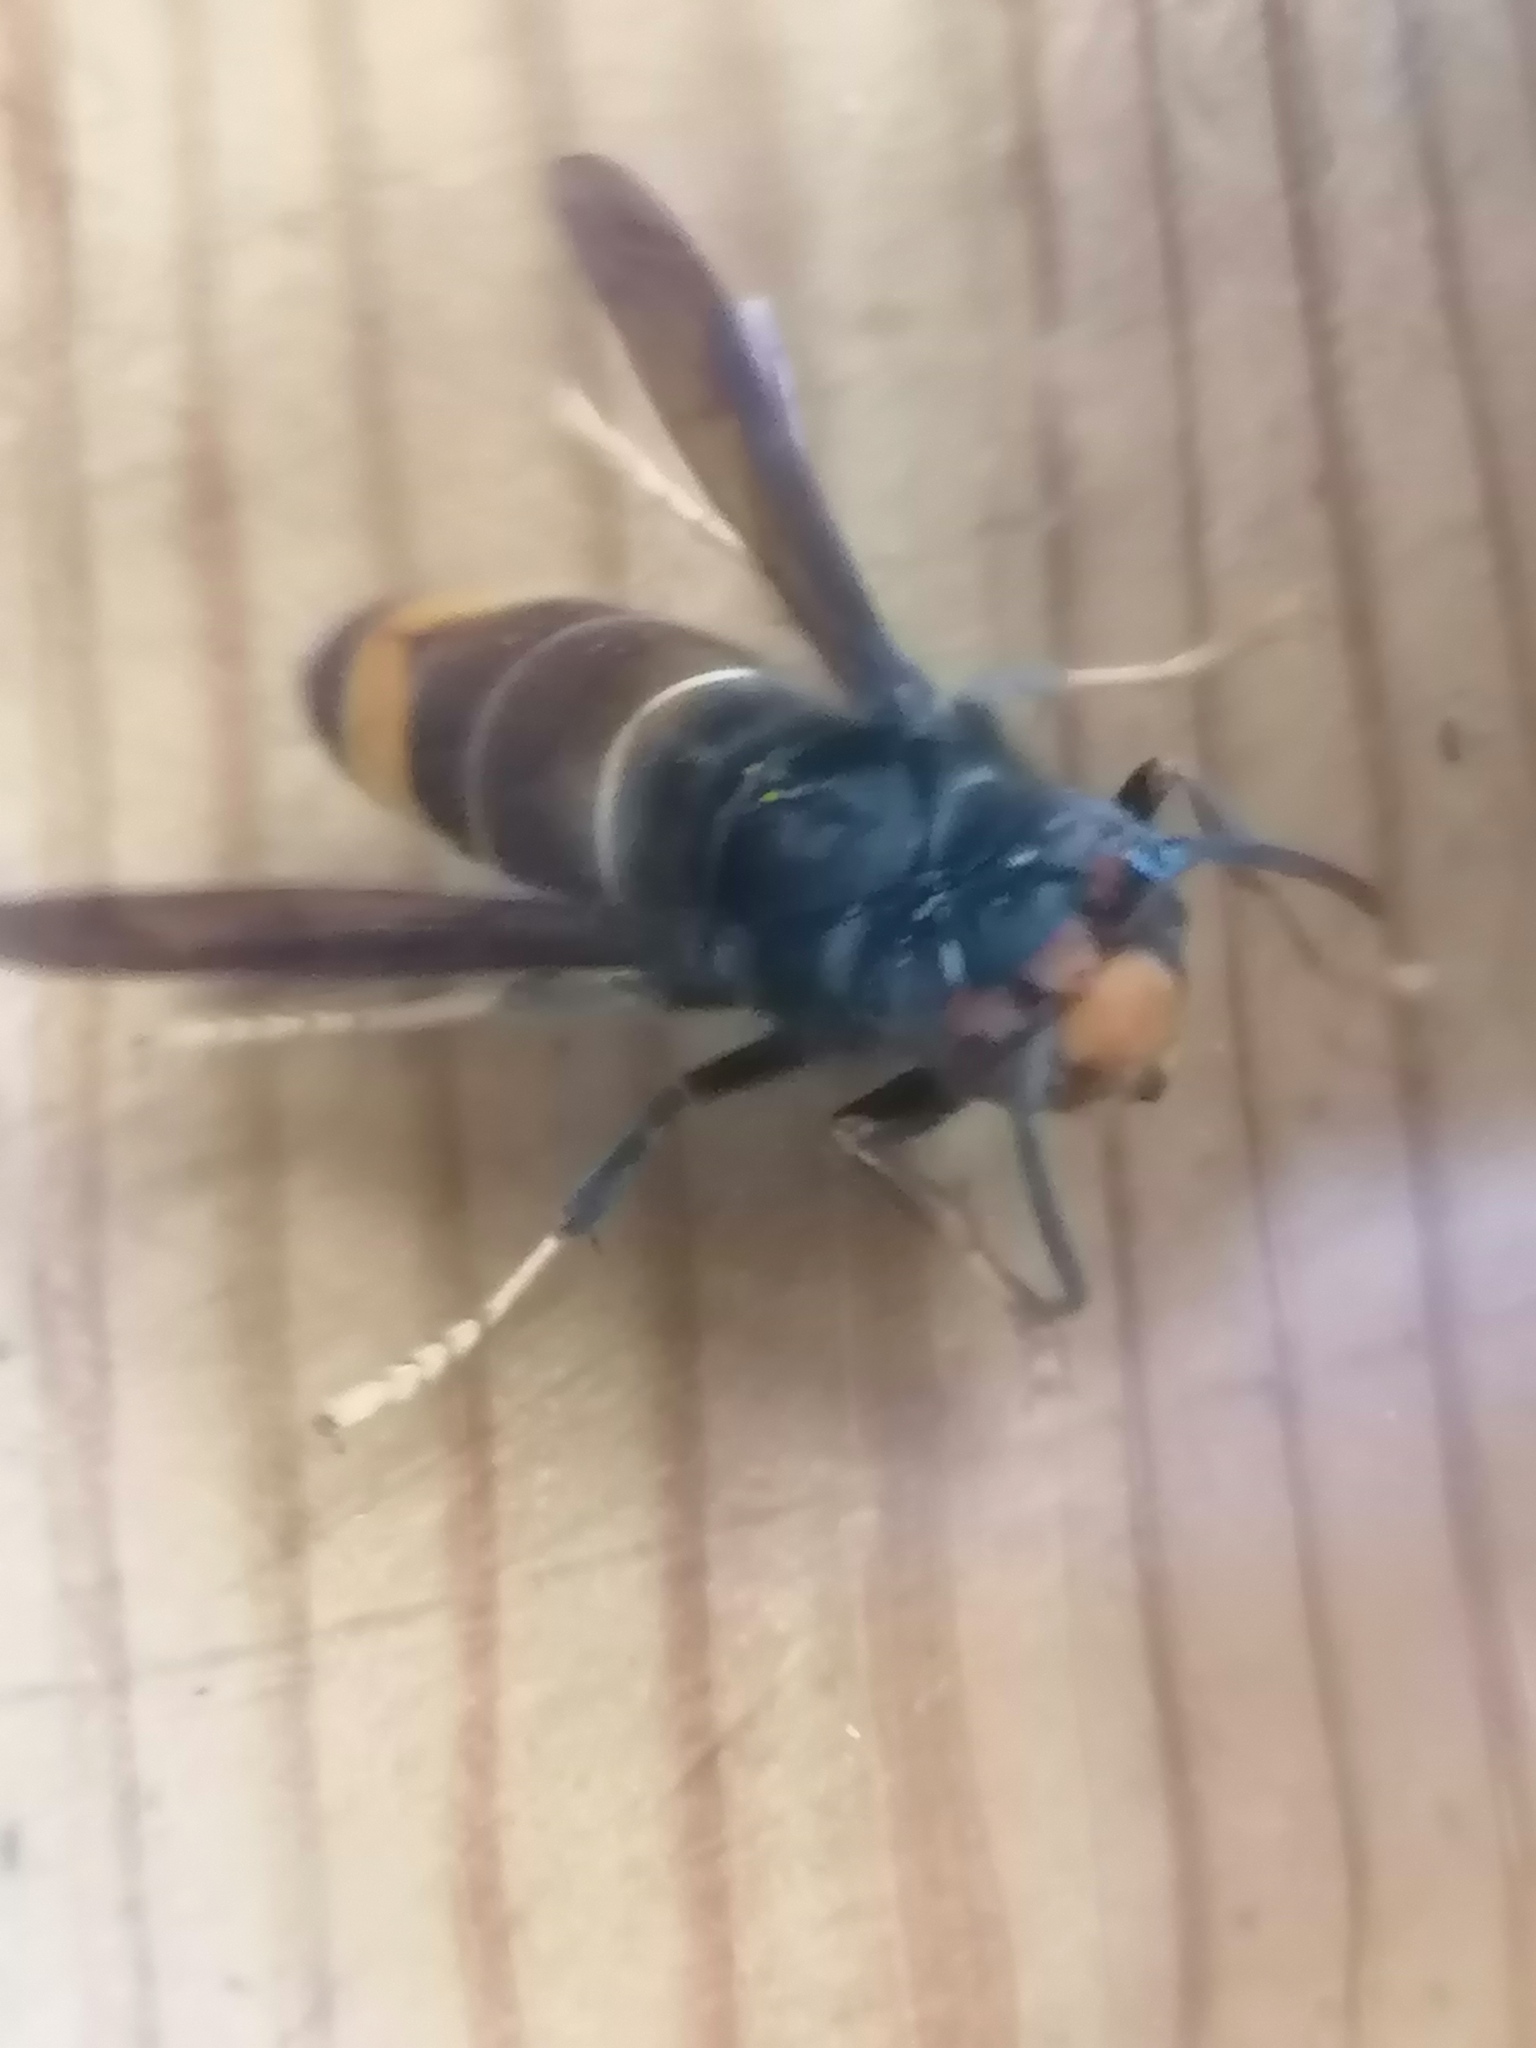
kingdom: Animalia
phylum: Arthropoda
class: Insecta
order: Hymenoptera
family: Vespidae
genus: Vespa
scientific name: Vespa velutina
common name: Asian hornet
